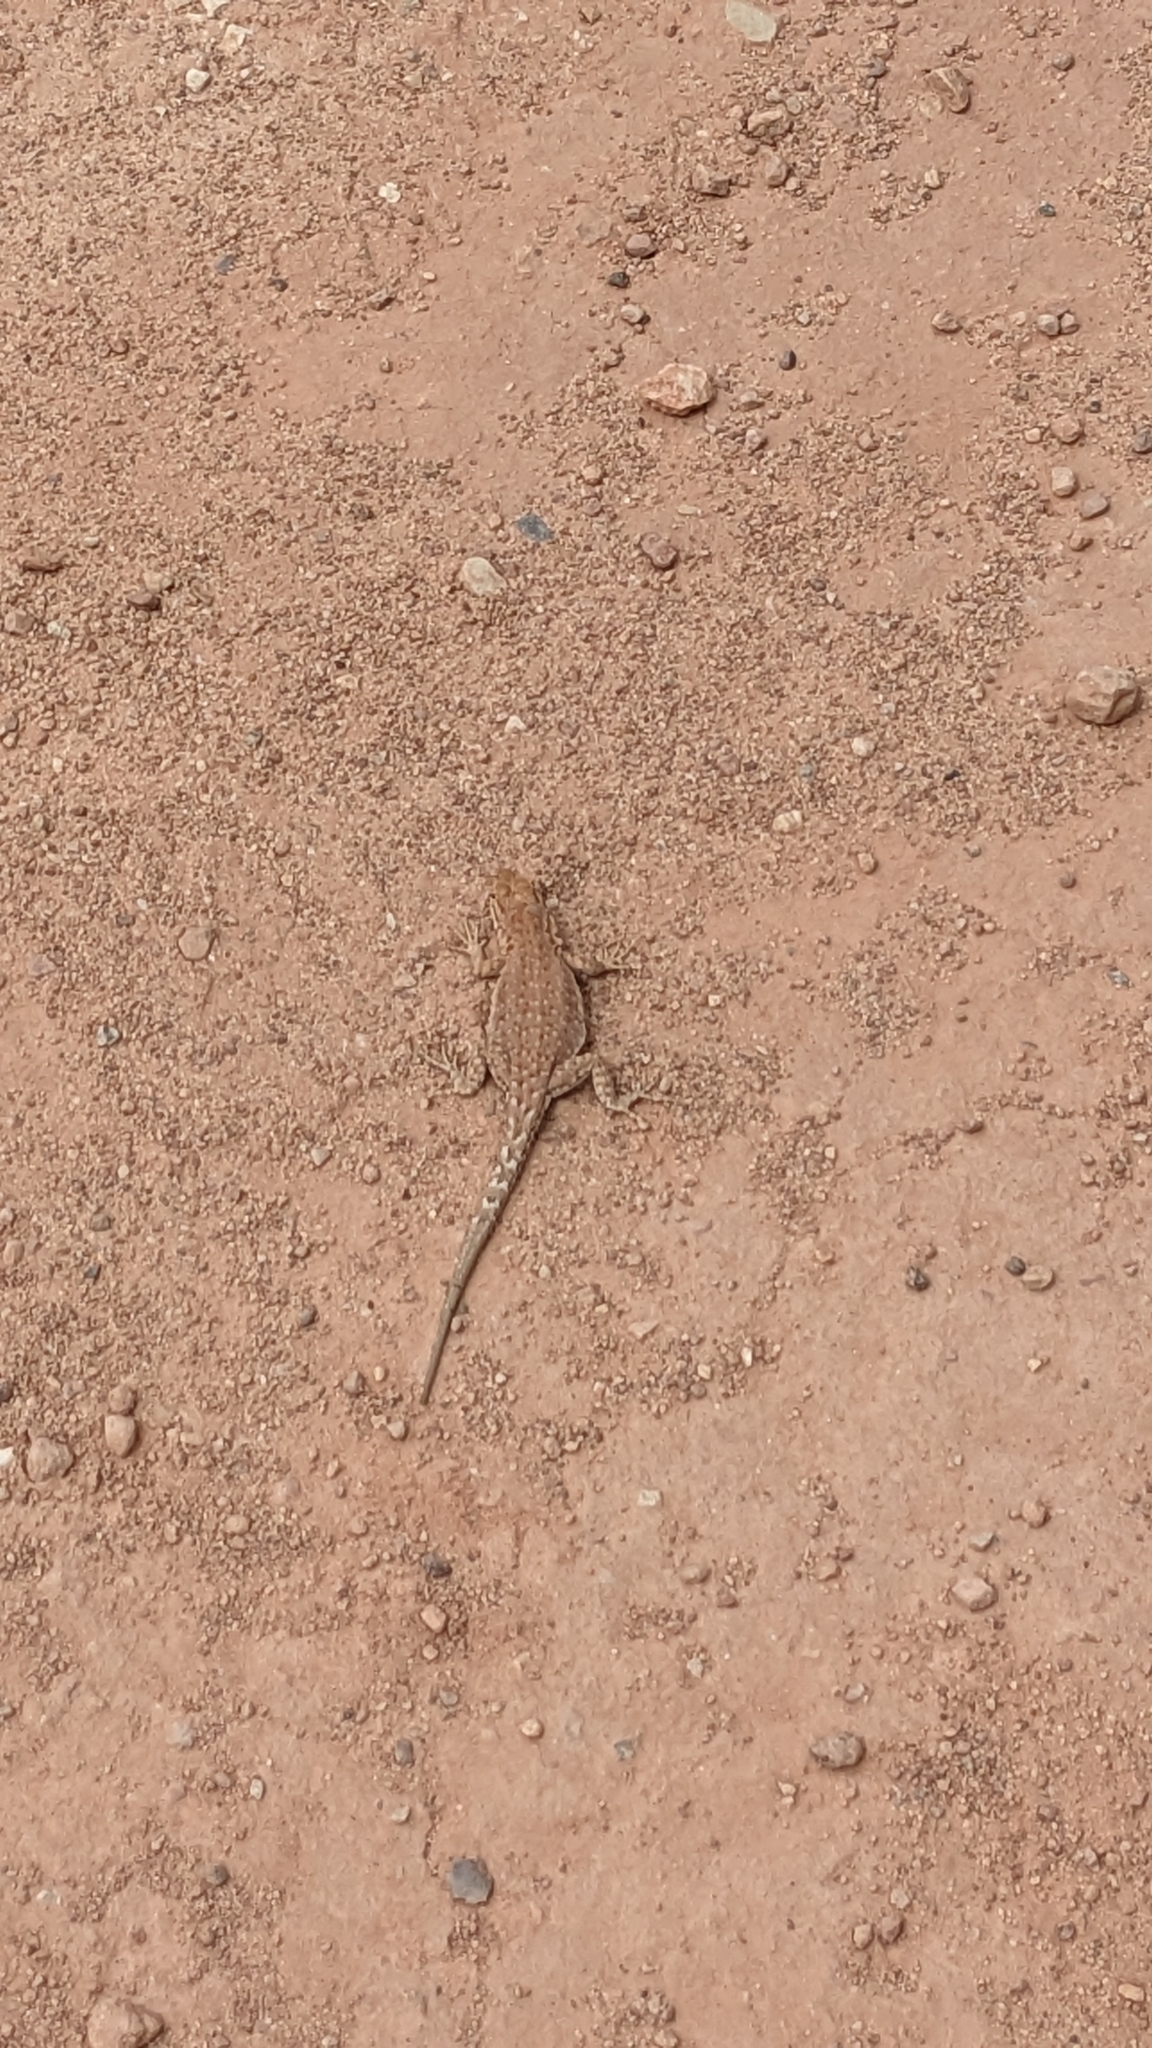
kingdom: Animalia
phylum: Chordata
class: Squamata
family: Phrynosomatidae
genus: Uta
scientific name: Uta stansburiana
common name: Side-blotched lizard
